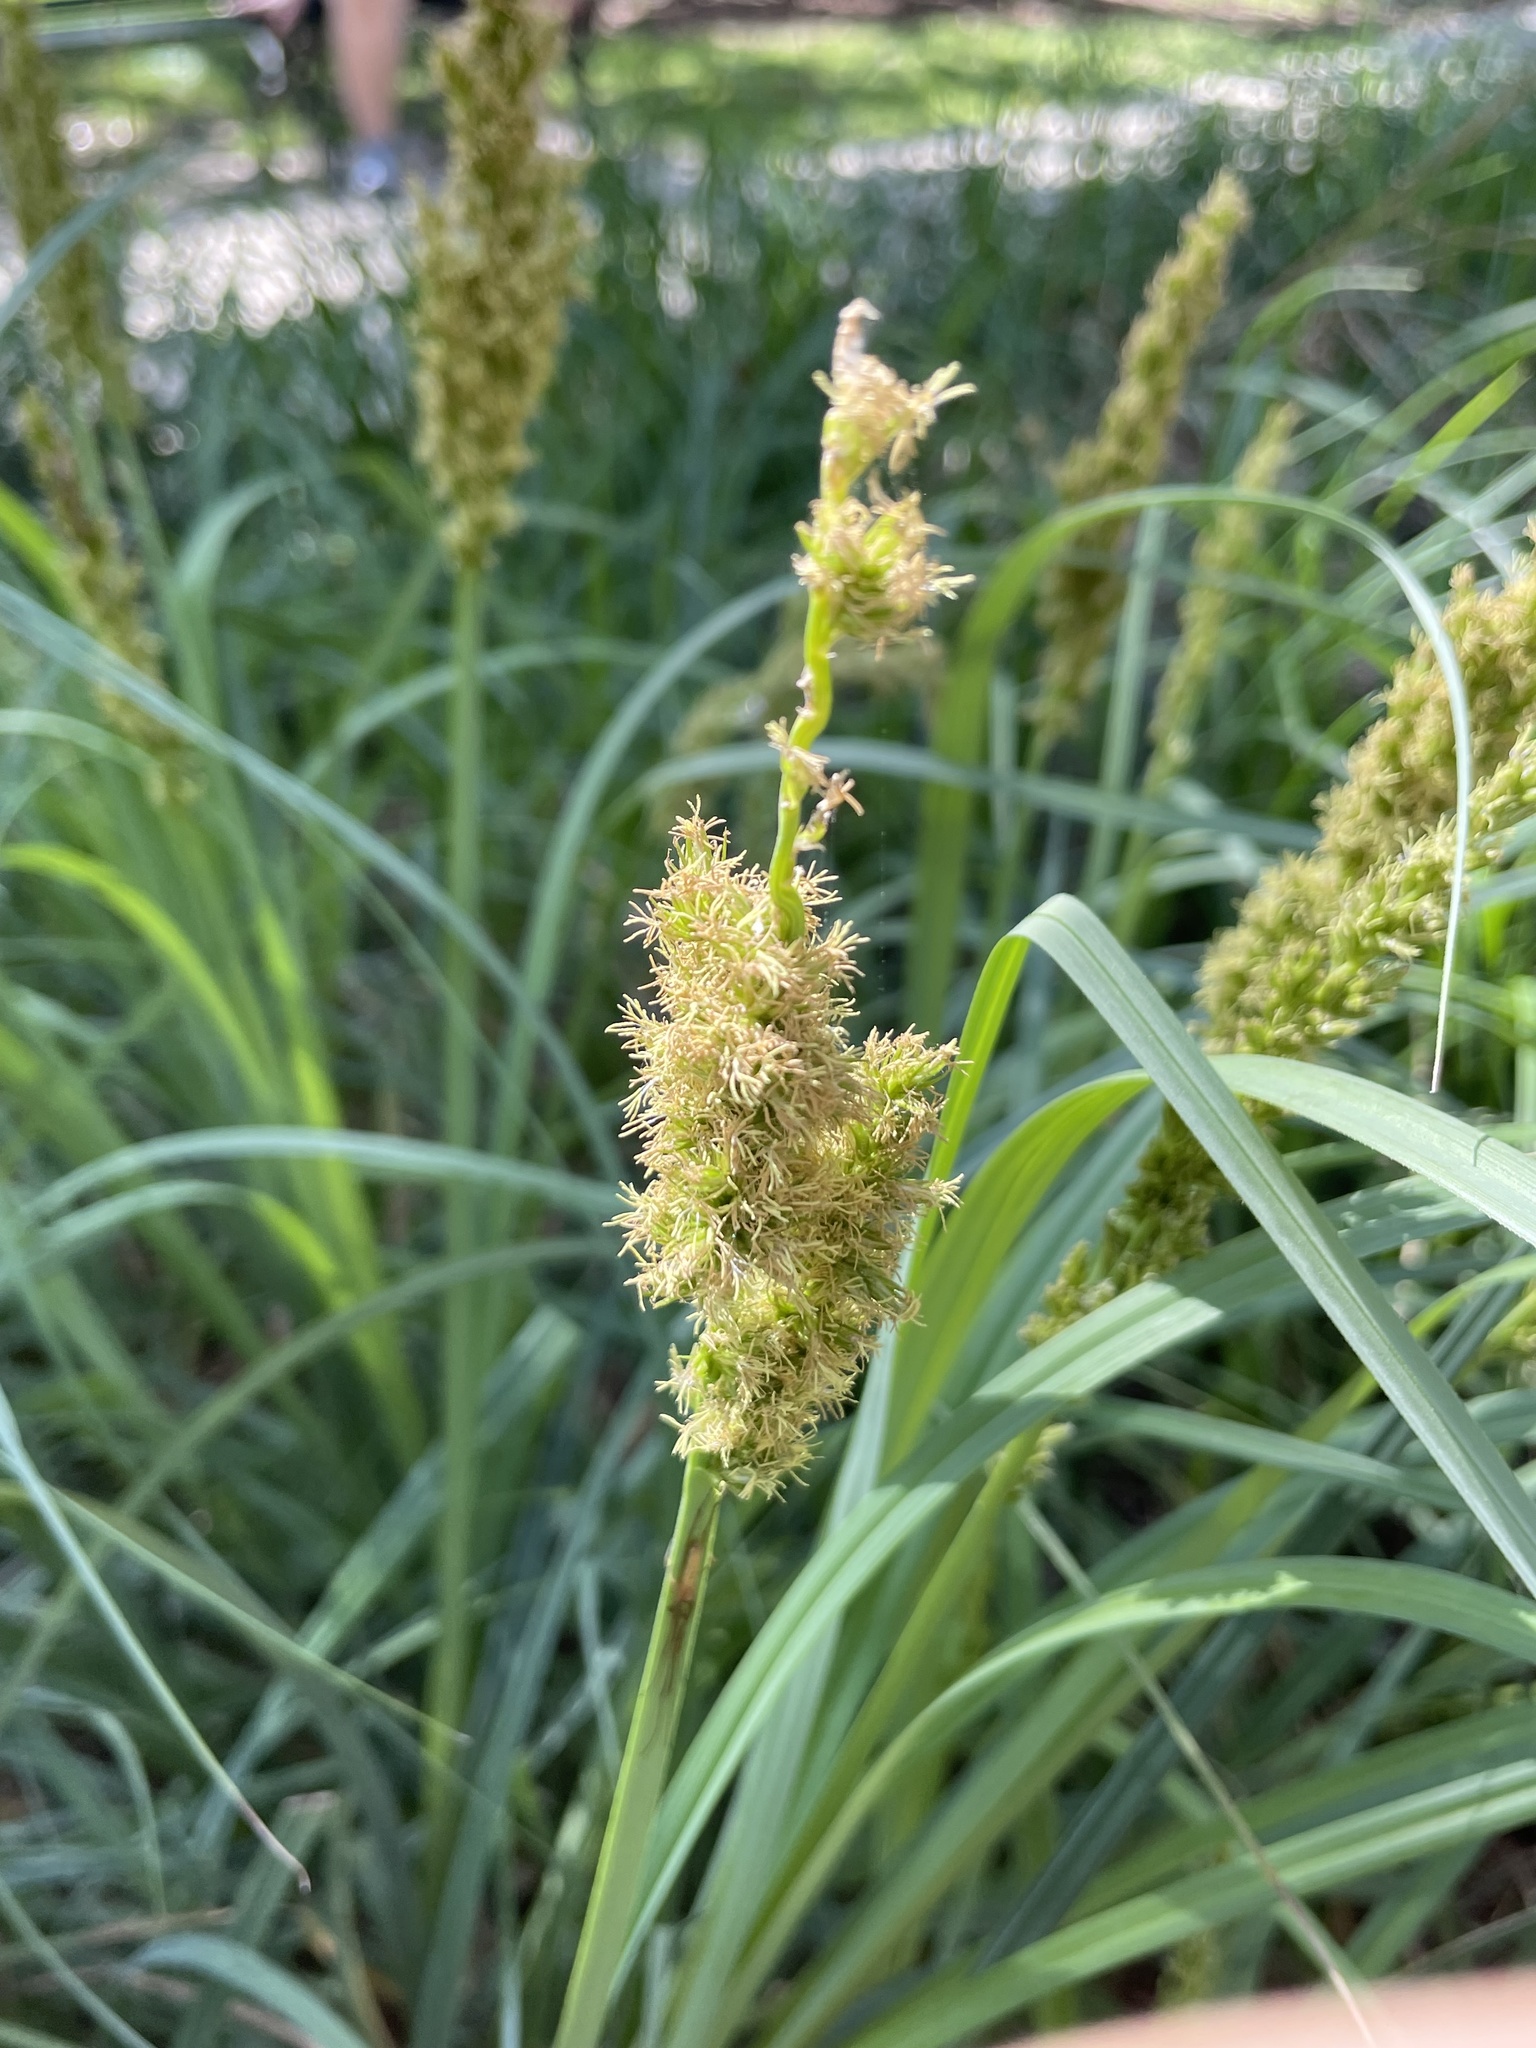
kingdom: Plantae
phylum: Tracheophyta
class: Liliopsida
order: Poales
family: Cyperaceae
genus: Carex
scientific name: Carex crus-corvi
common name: Crow-spur sedge
